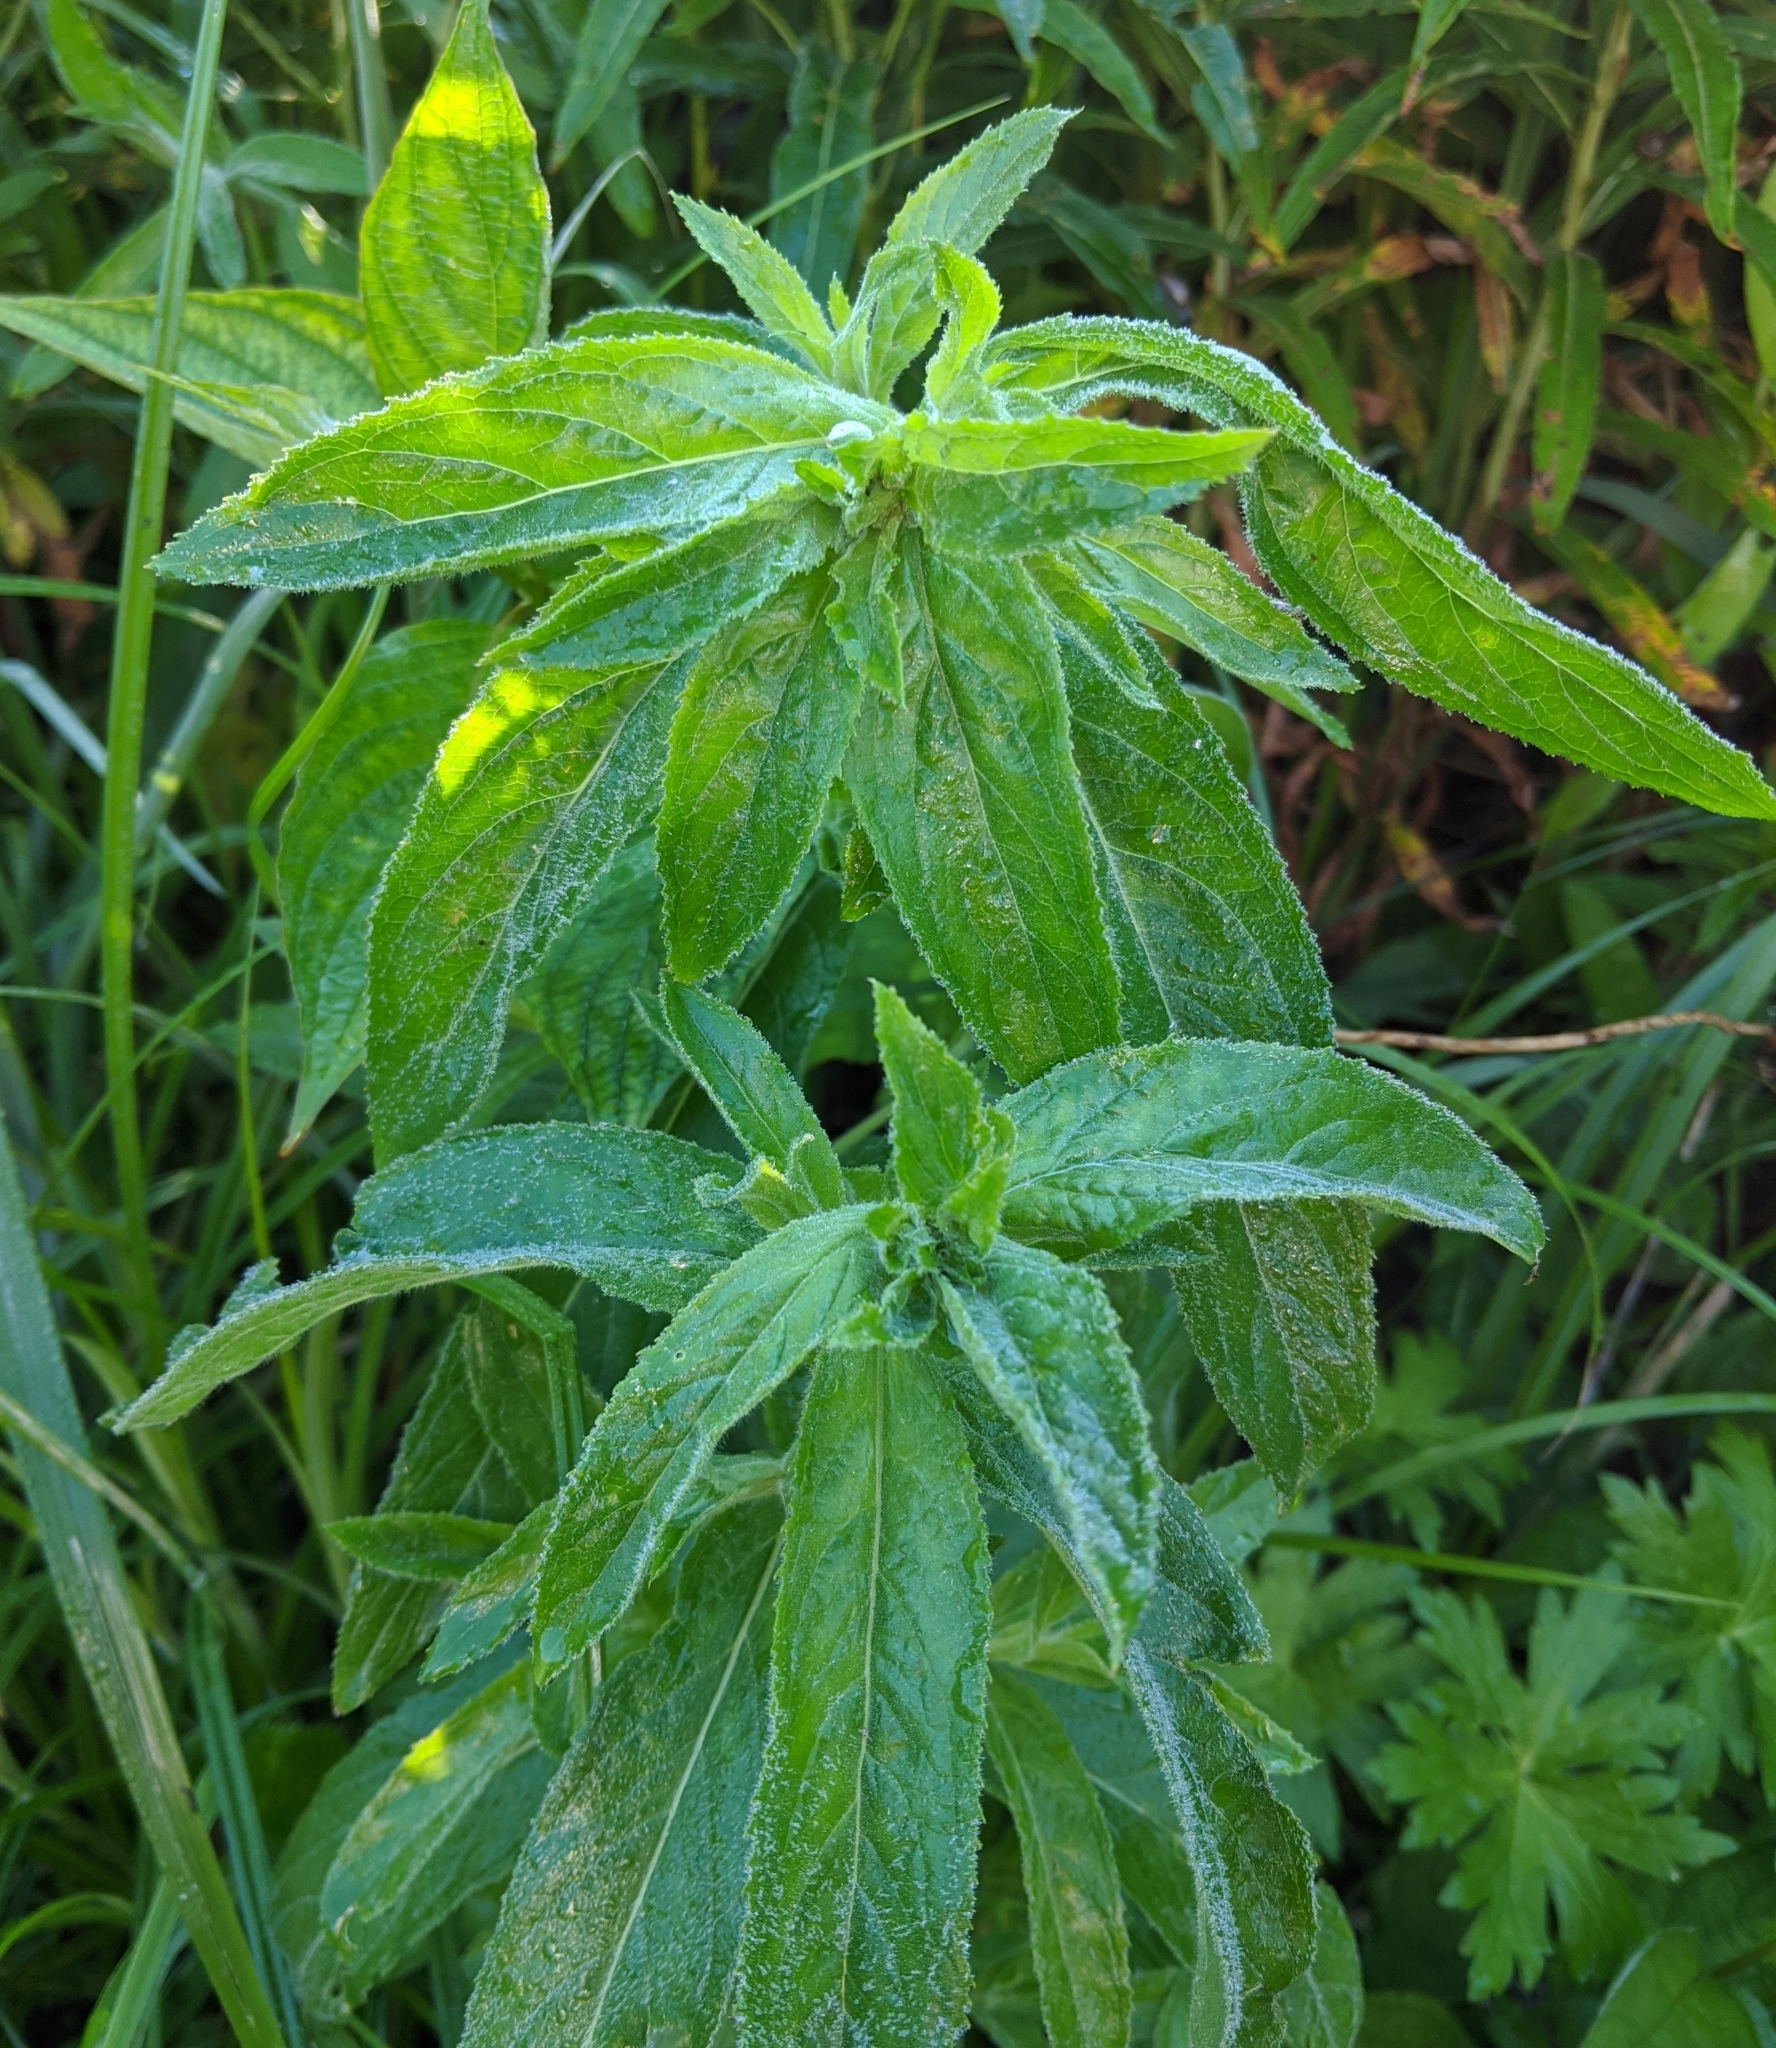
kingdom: Plantae
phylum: Tracheophyta
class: Magnoliopsida
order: Myrtales
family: Onagraceae
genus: Chamaenerion
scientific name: Chamaenerion angustifolium
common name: Fireweed
